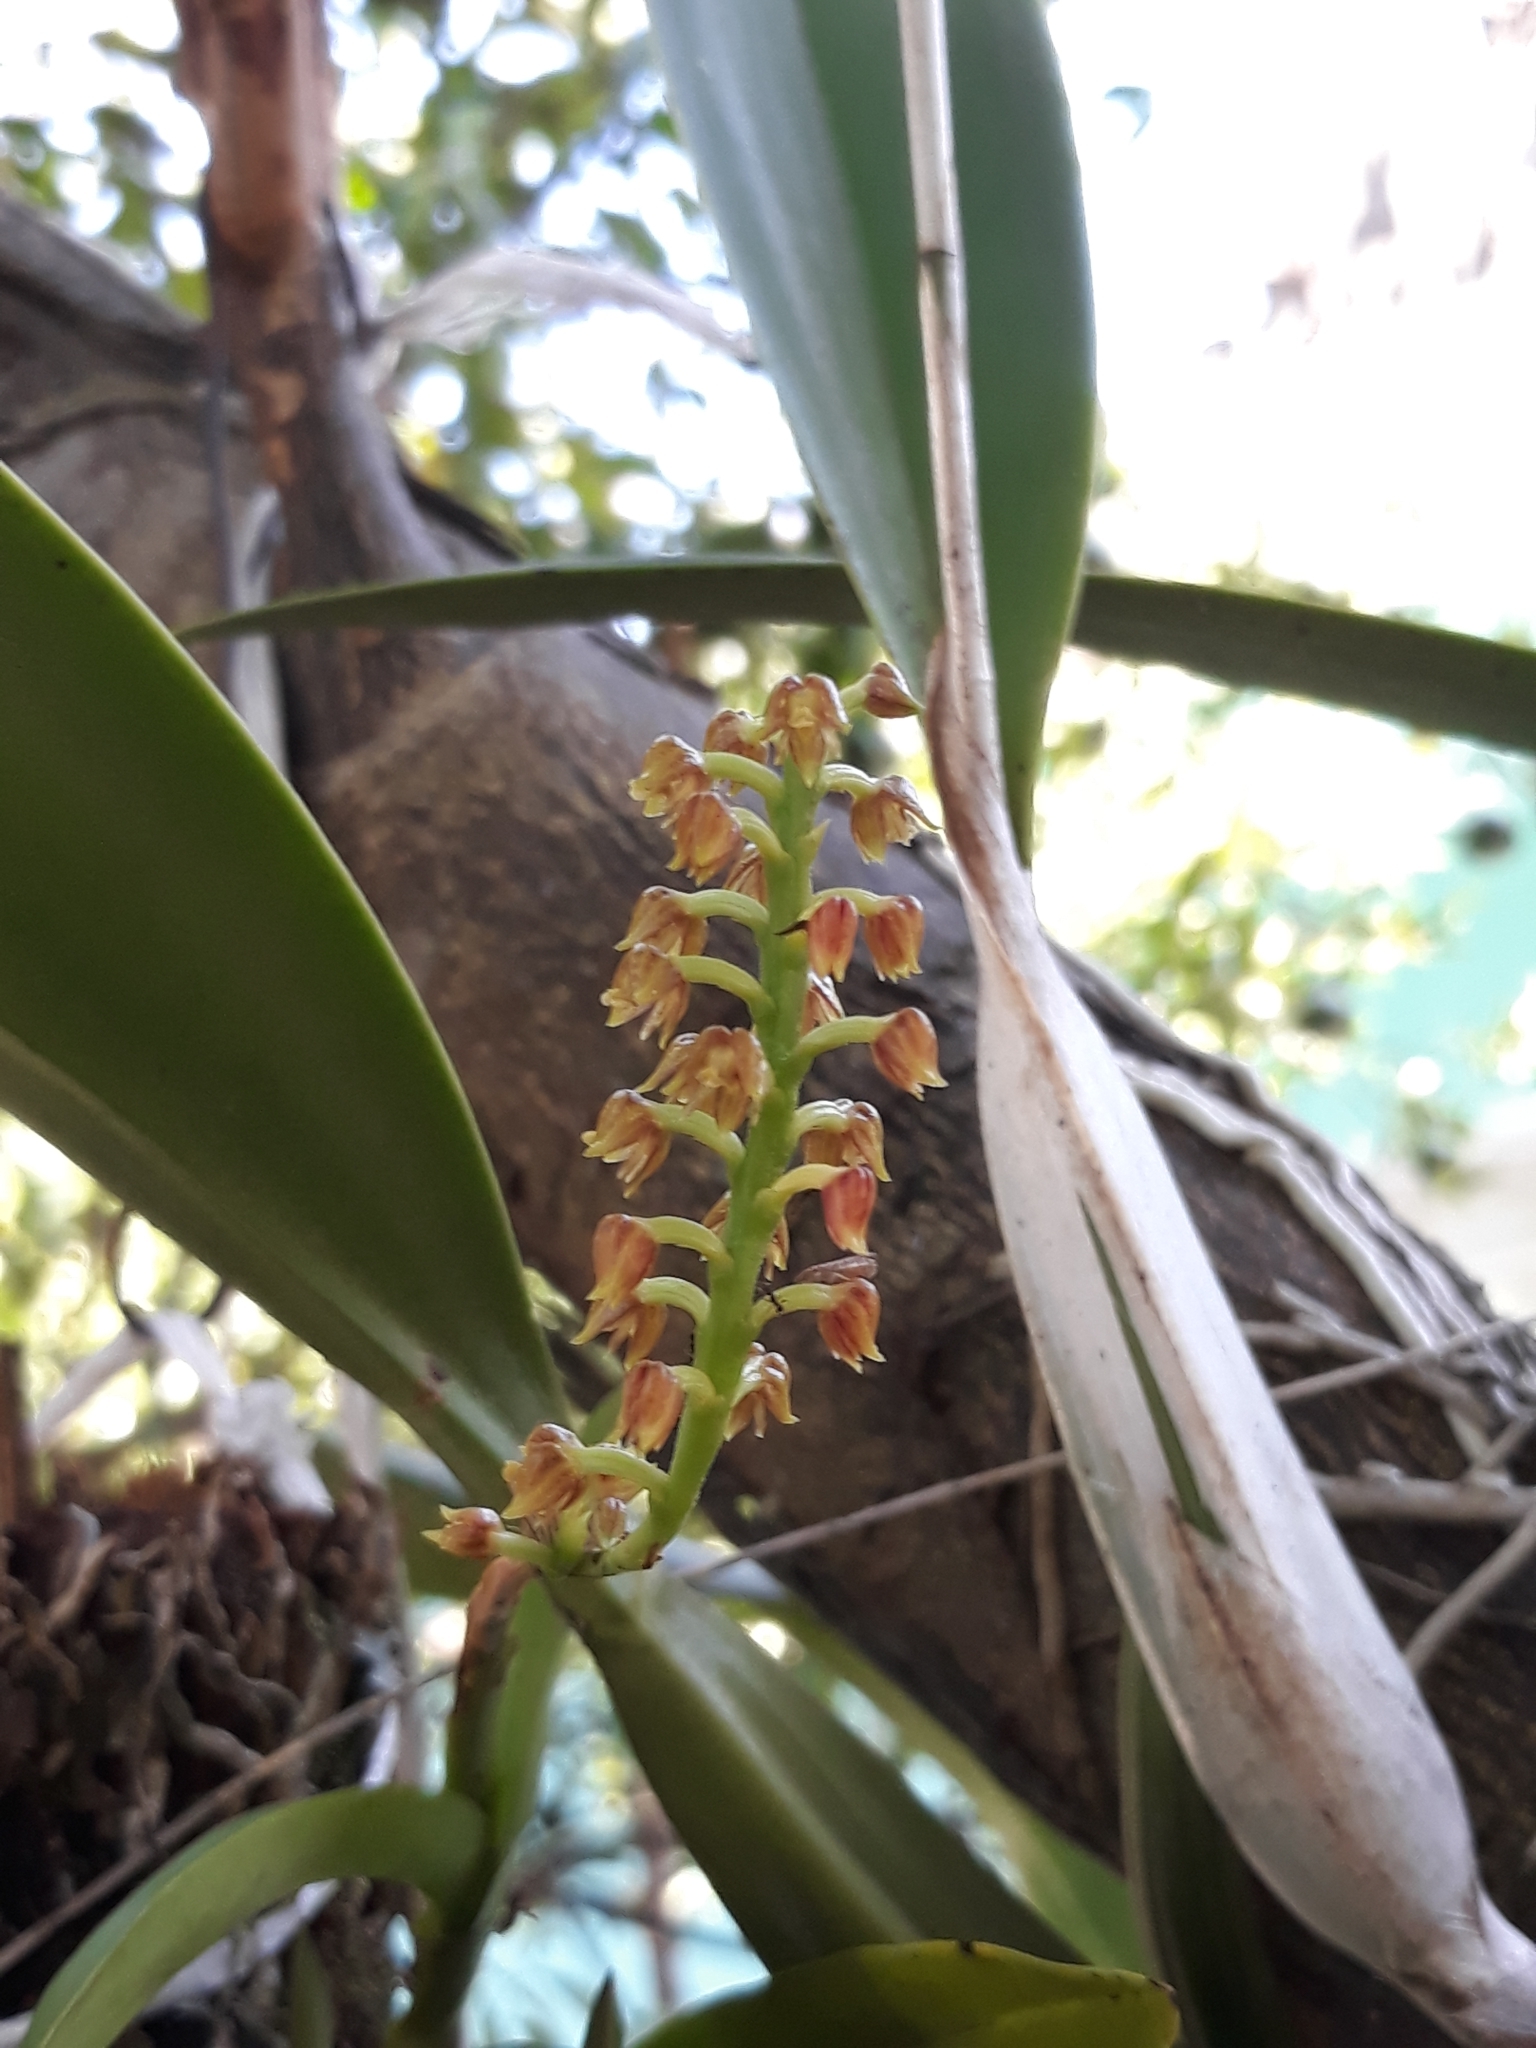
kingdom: Plantae
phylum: Tracheophyta
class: Liliopsida
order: Asparagales
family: Orchidaceae
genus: Polystachya
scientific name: Polystachya lineata
